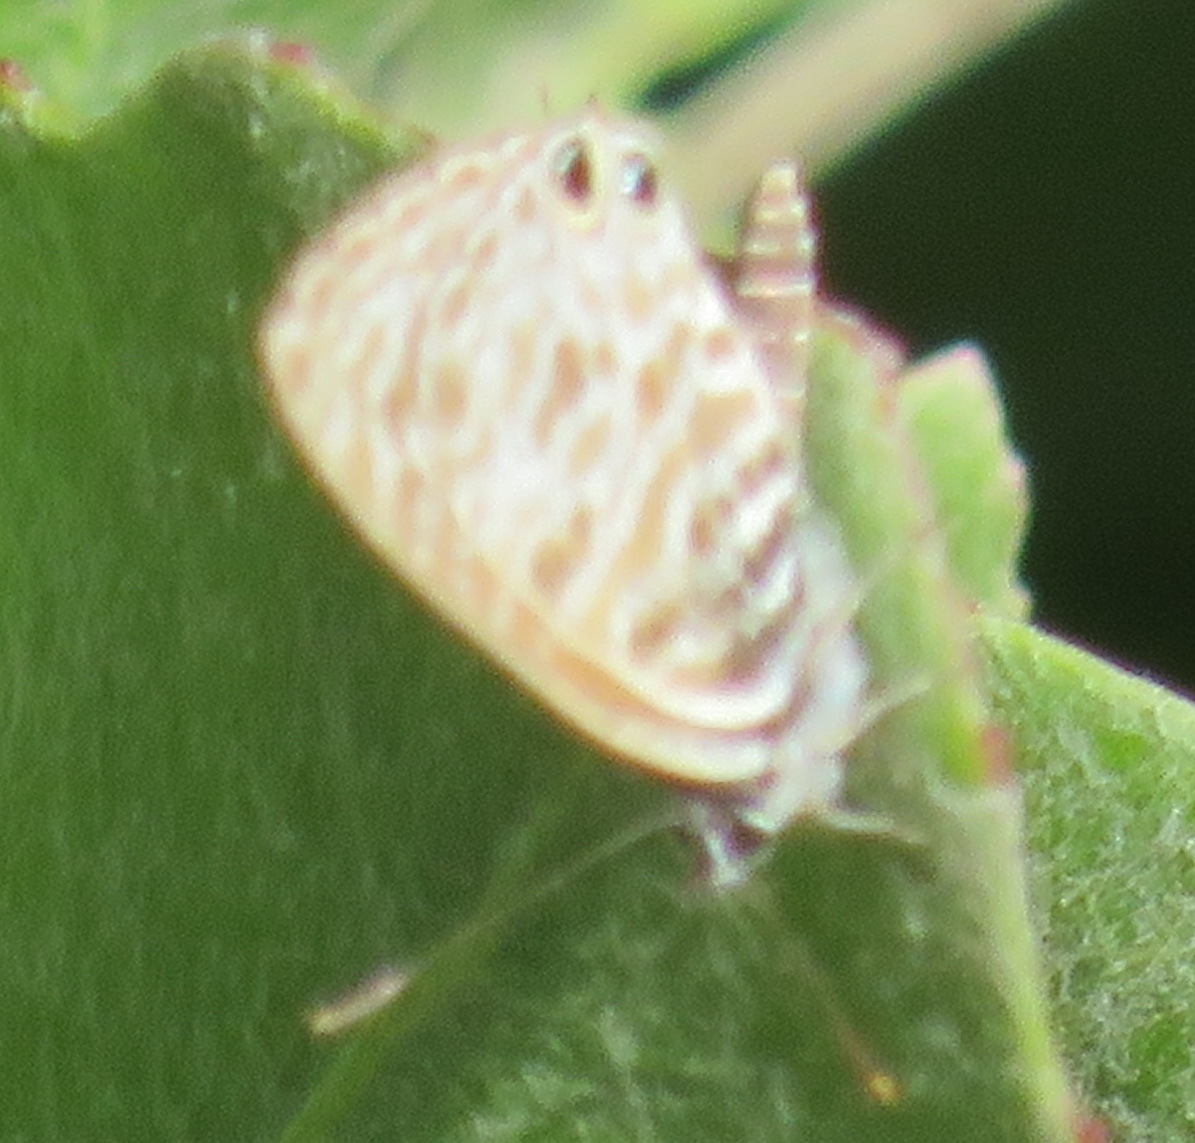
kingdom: Animalia
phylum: Arthropoda
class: Insecta
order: Lepidoptera
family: Lycaenidae
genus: Leptotes
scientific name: Leptotes
